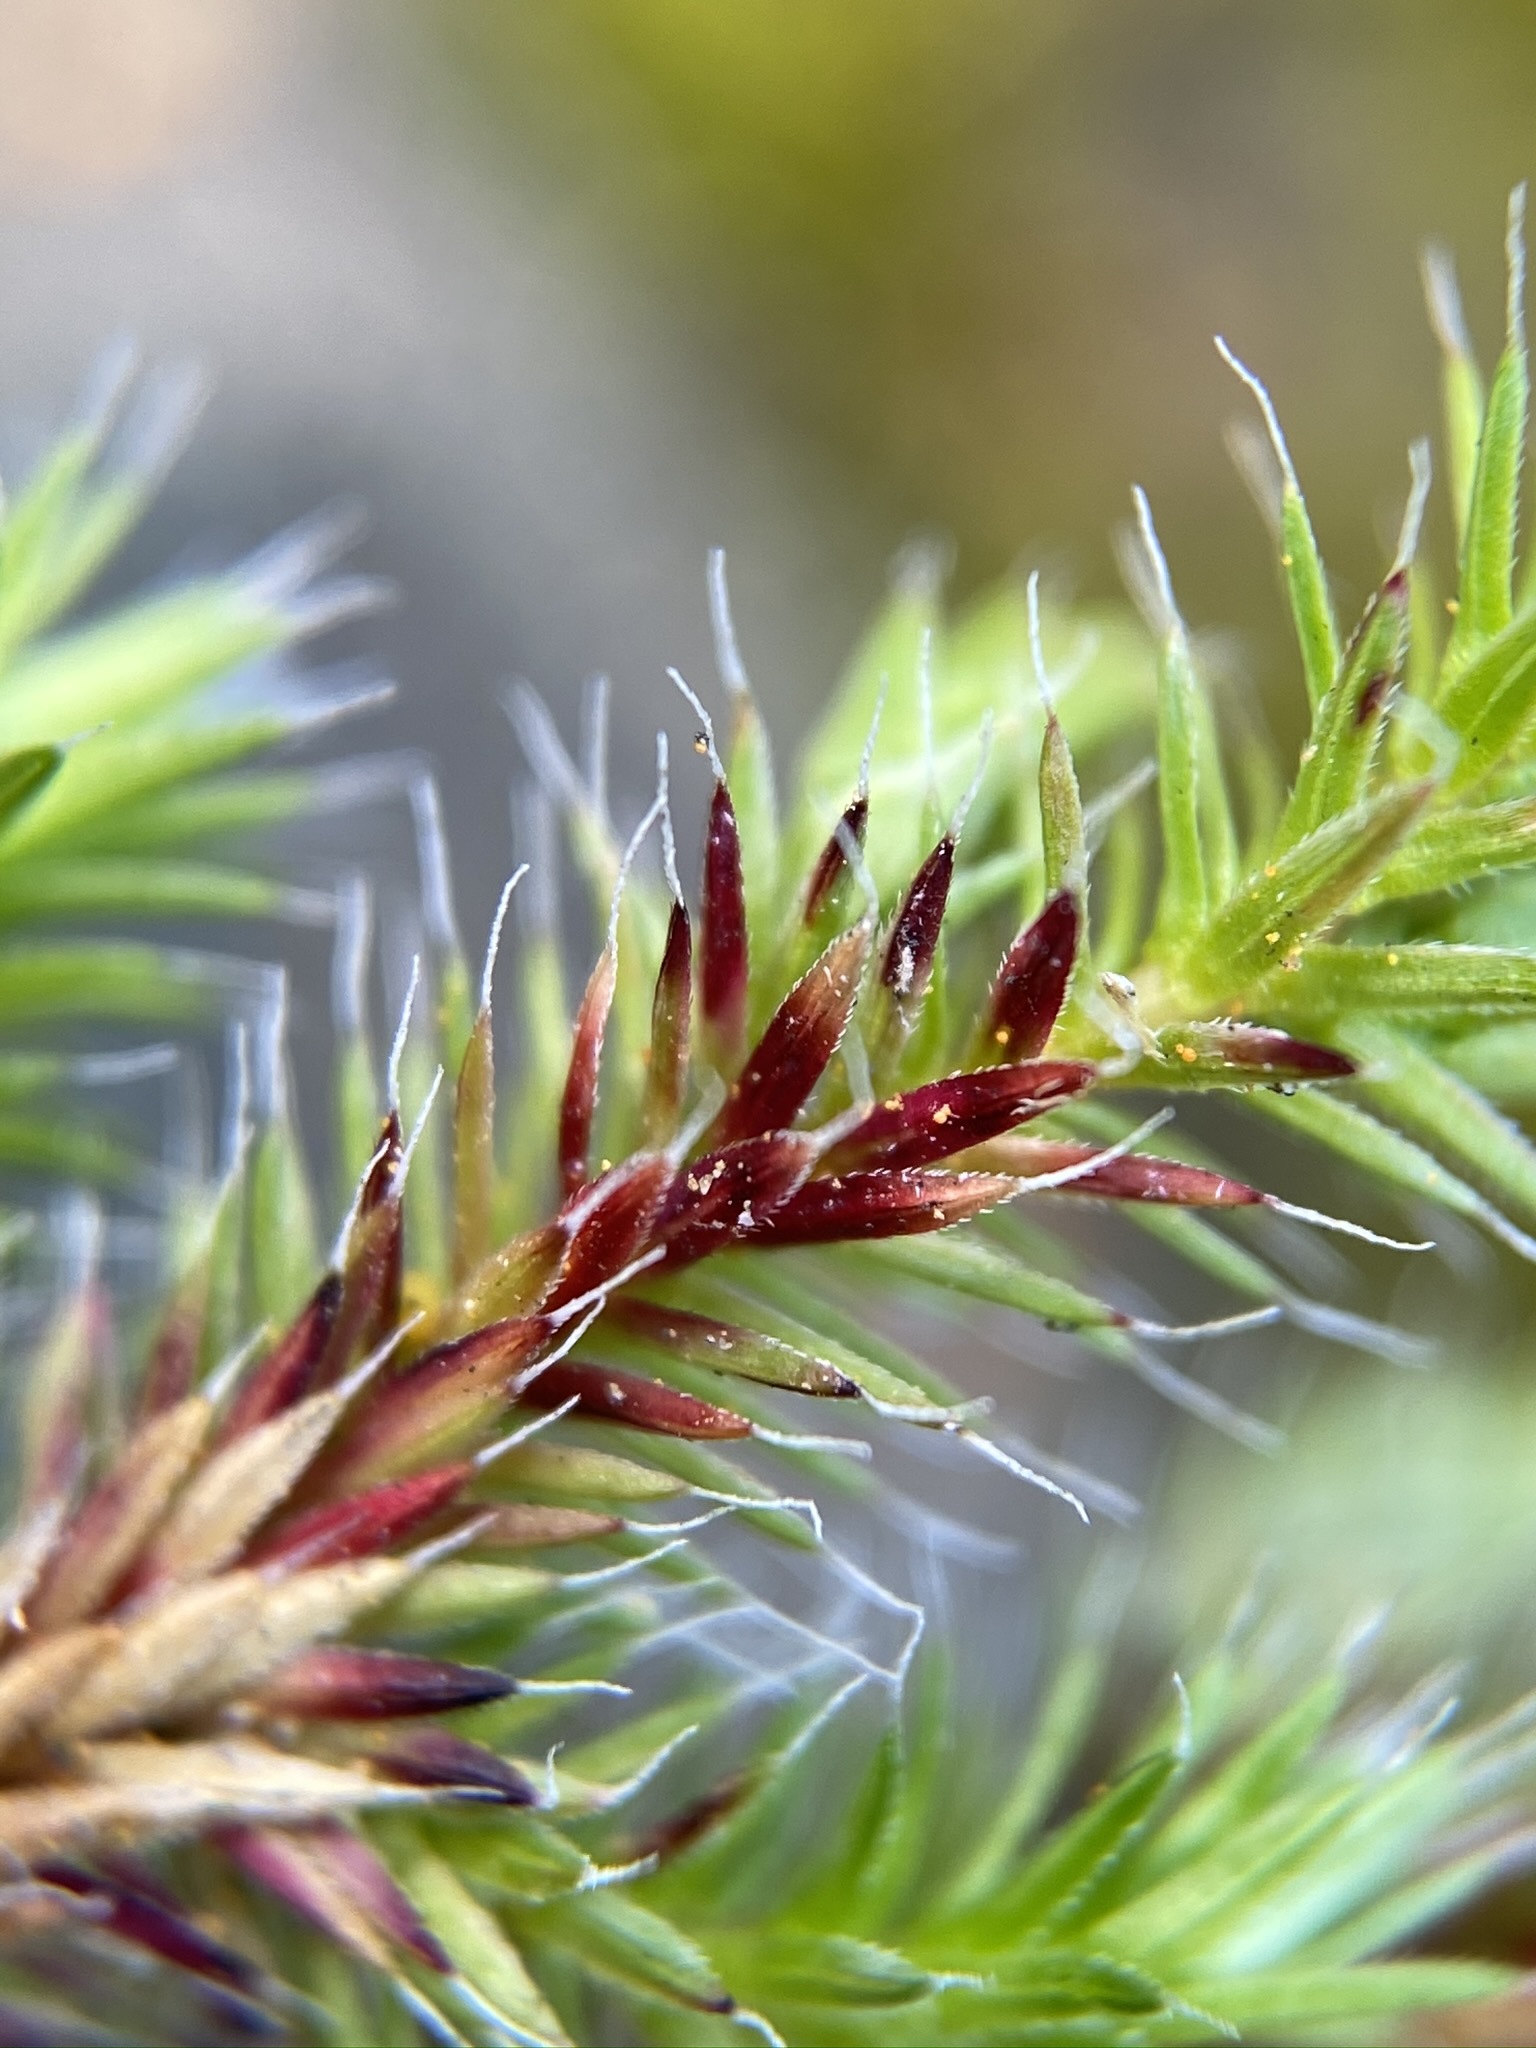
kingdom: Plantae
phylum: Tracheophyta
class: Lycopodiopsida
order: Selaginellales
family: Selaginellaceae
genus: Selaginella
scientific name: Selaginella hansenii
